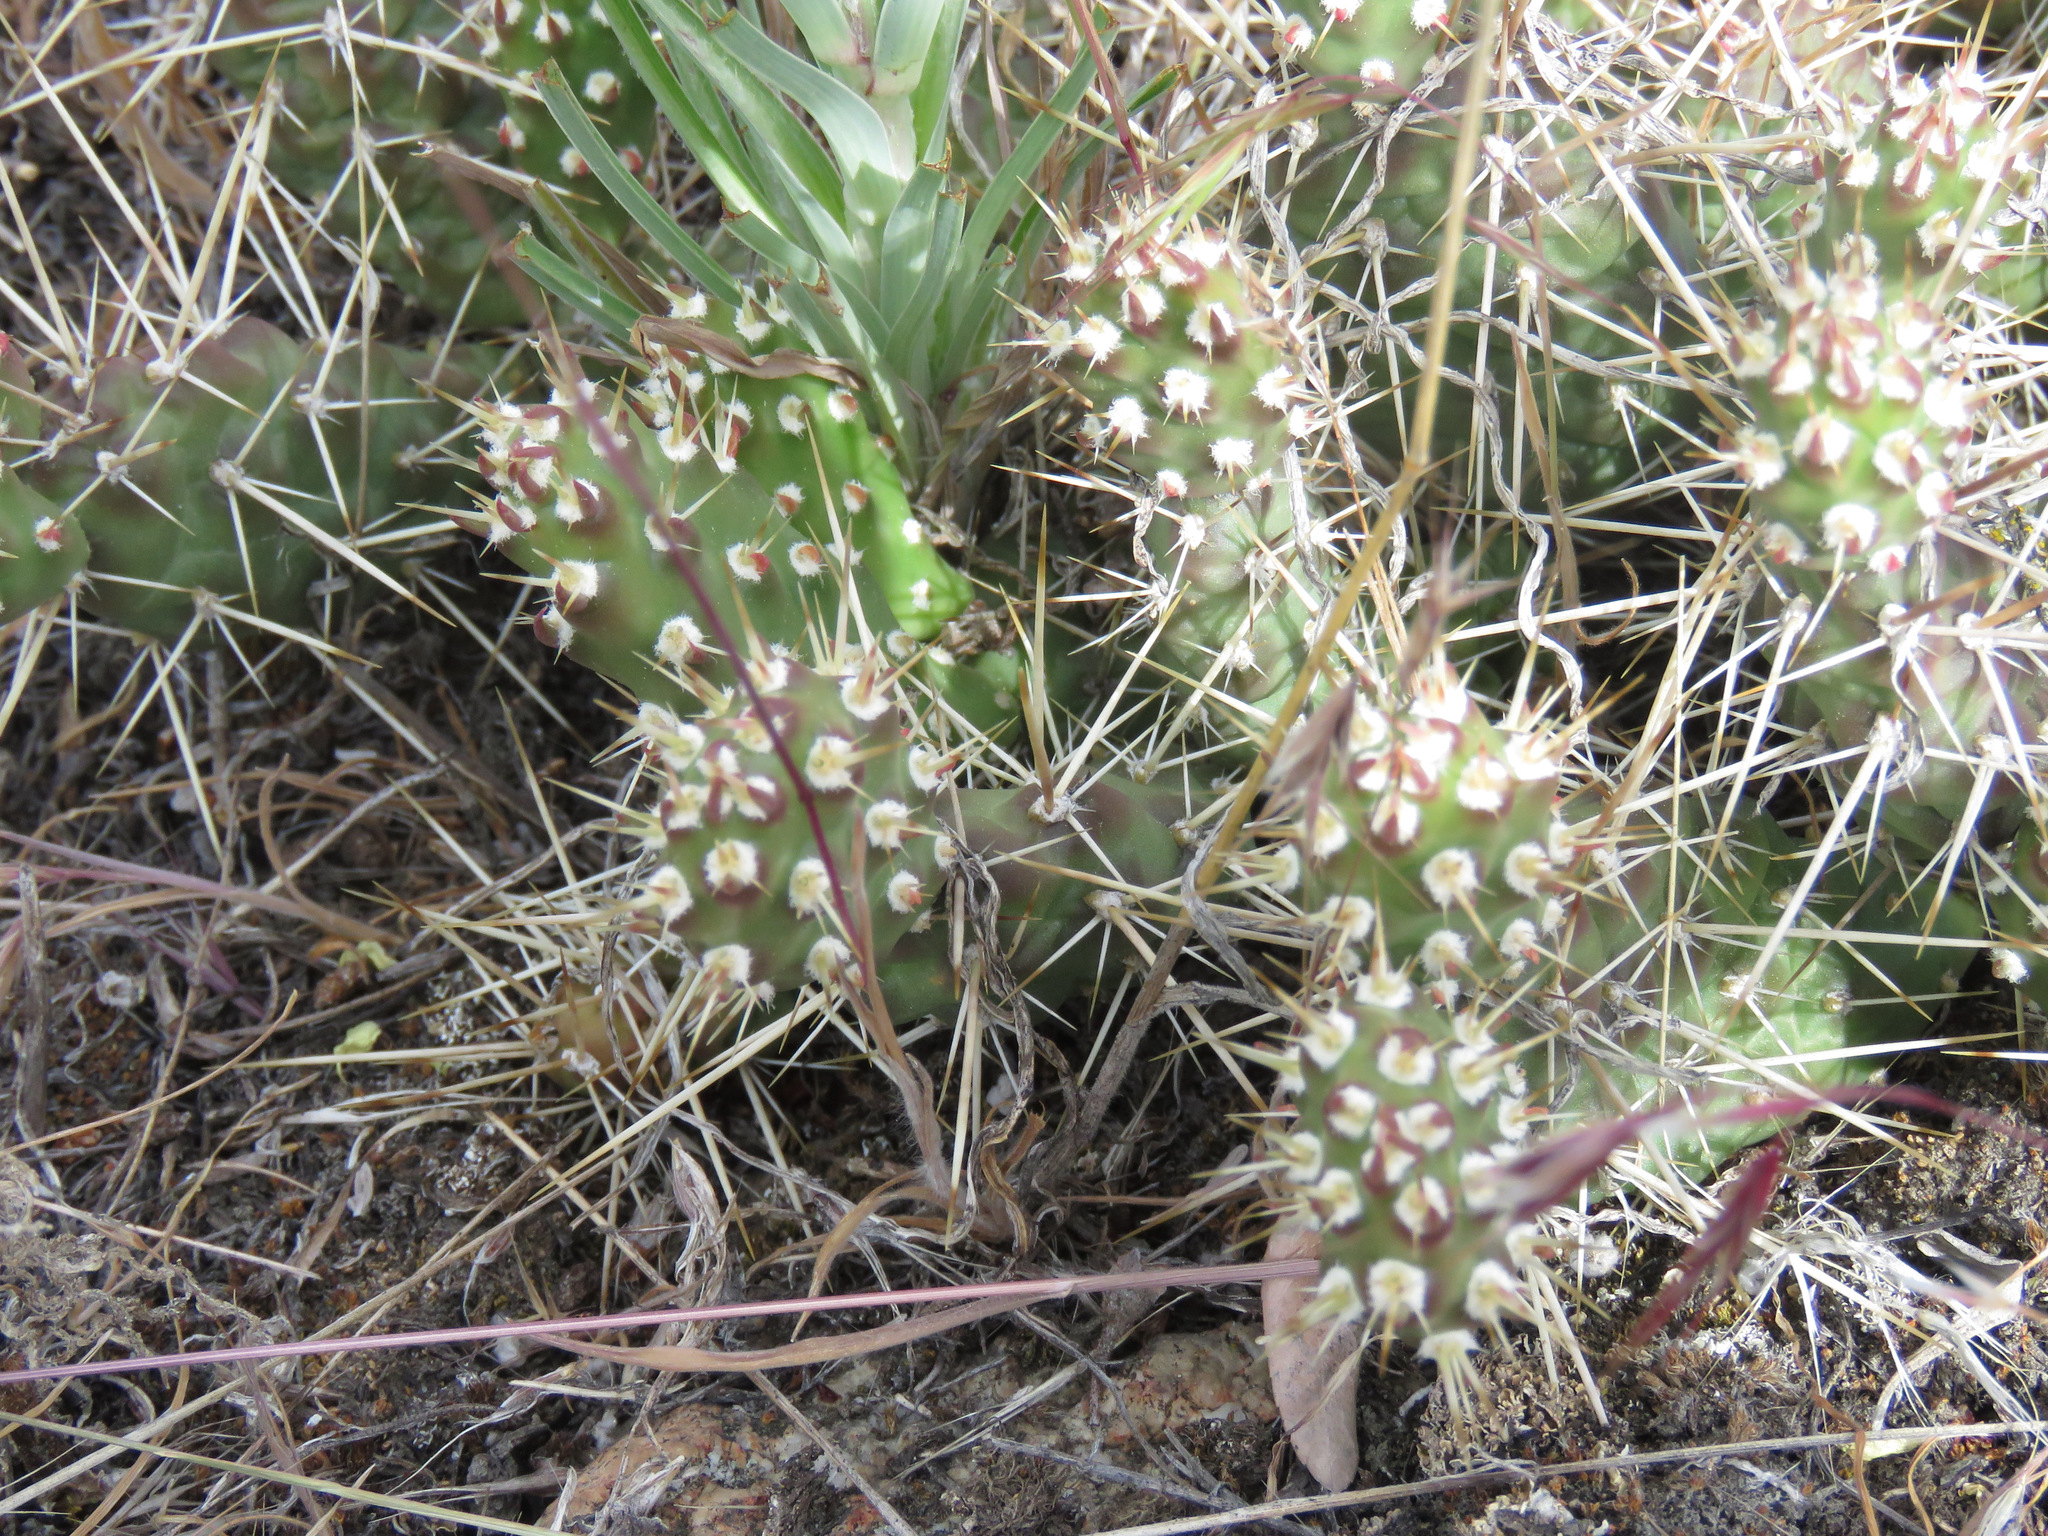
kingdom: Plantae
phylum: Tracheophyta
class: Magnoliopsida
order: Caryophyllales
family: Cactaceae
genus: Opuntia
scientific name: Opuntia fragilis
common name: Brittle cactus
